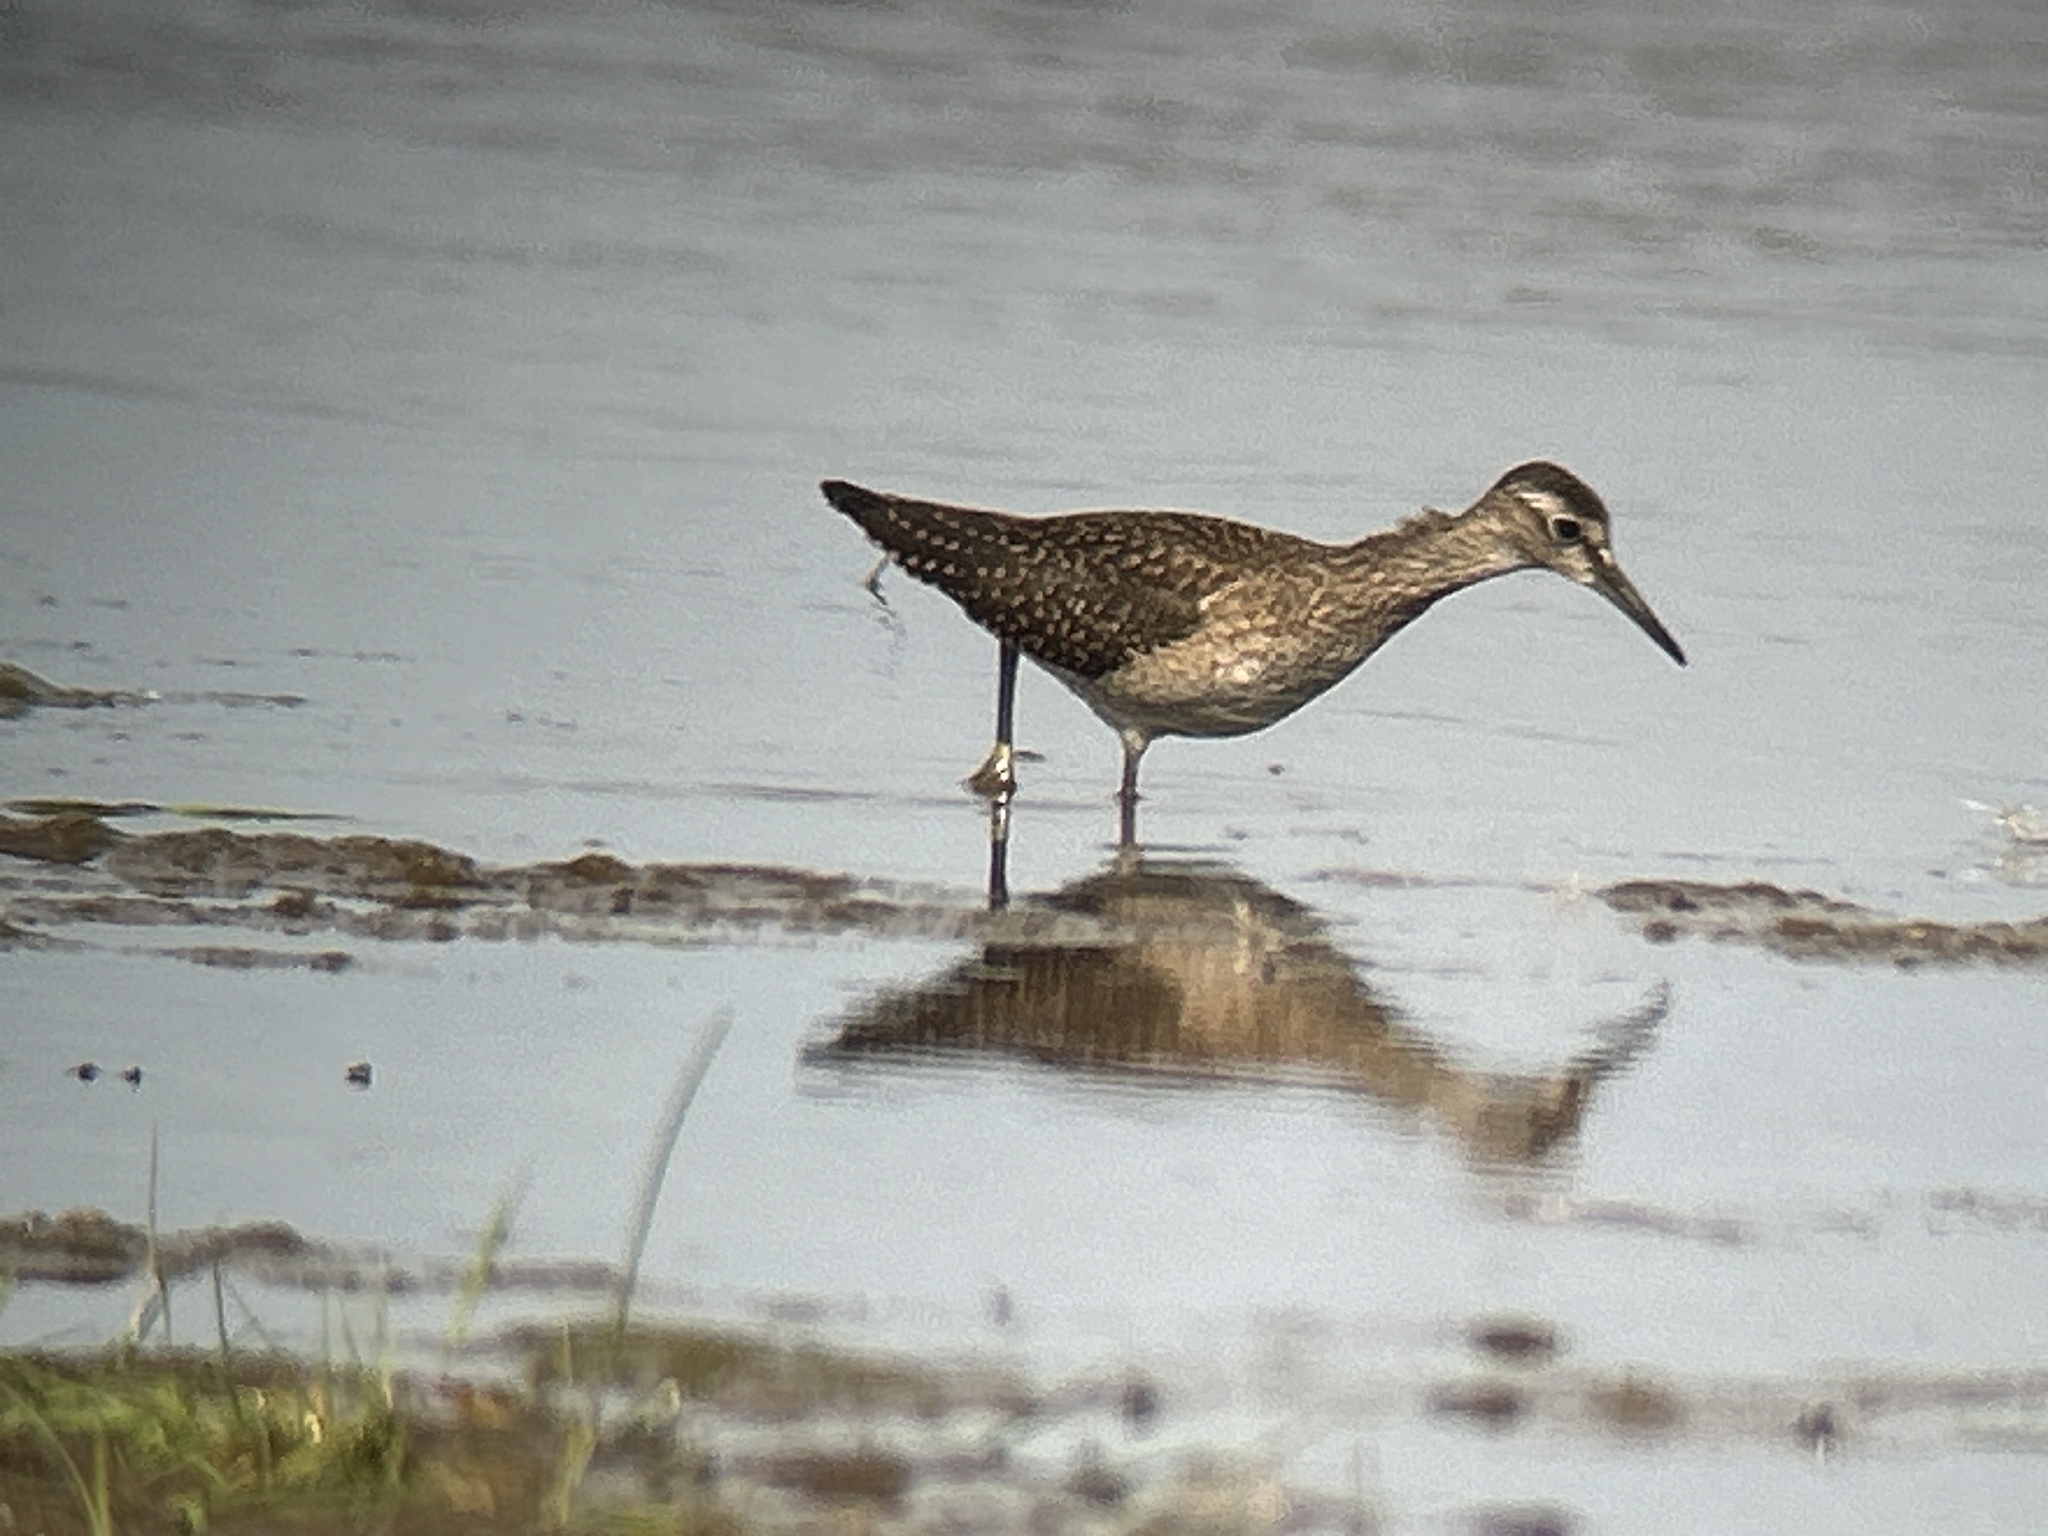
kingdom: Animalia
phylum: Chordata
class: Aves
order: Charadriiformes
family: Scolopacidae
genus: Tringa
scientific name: Tringa glareola
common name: Wood sandpiper
